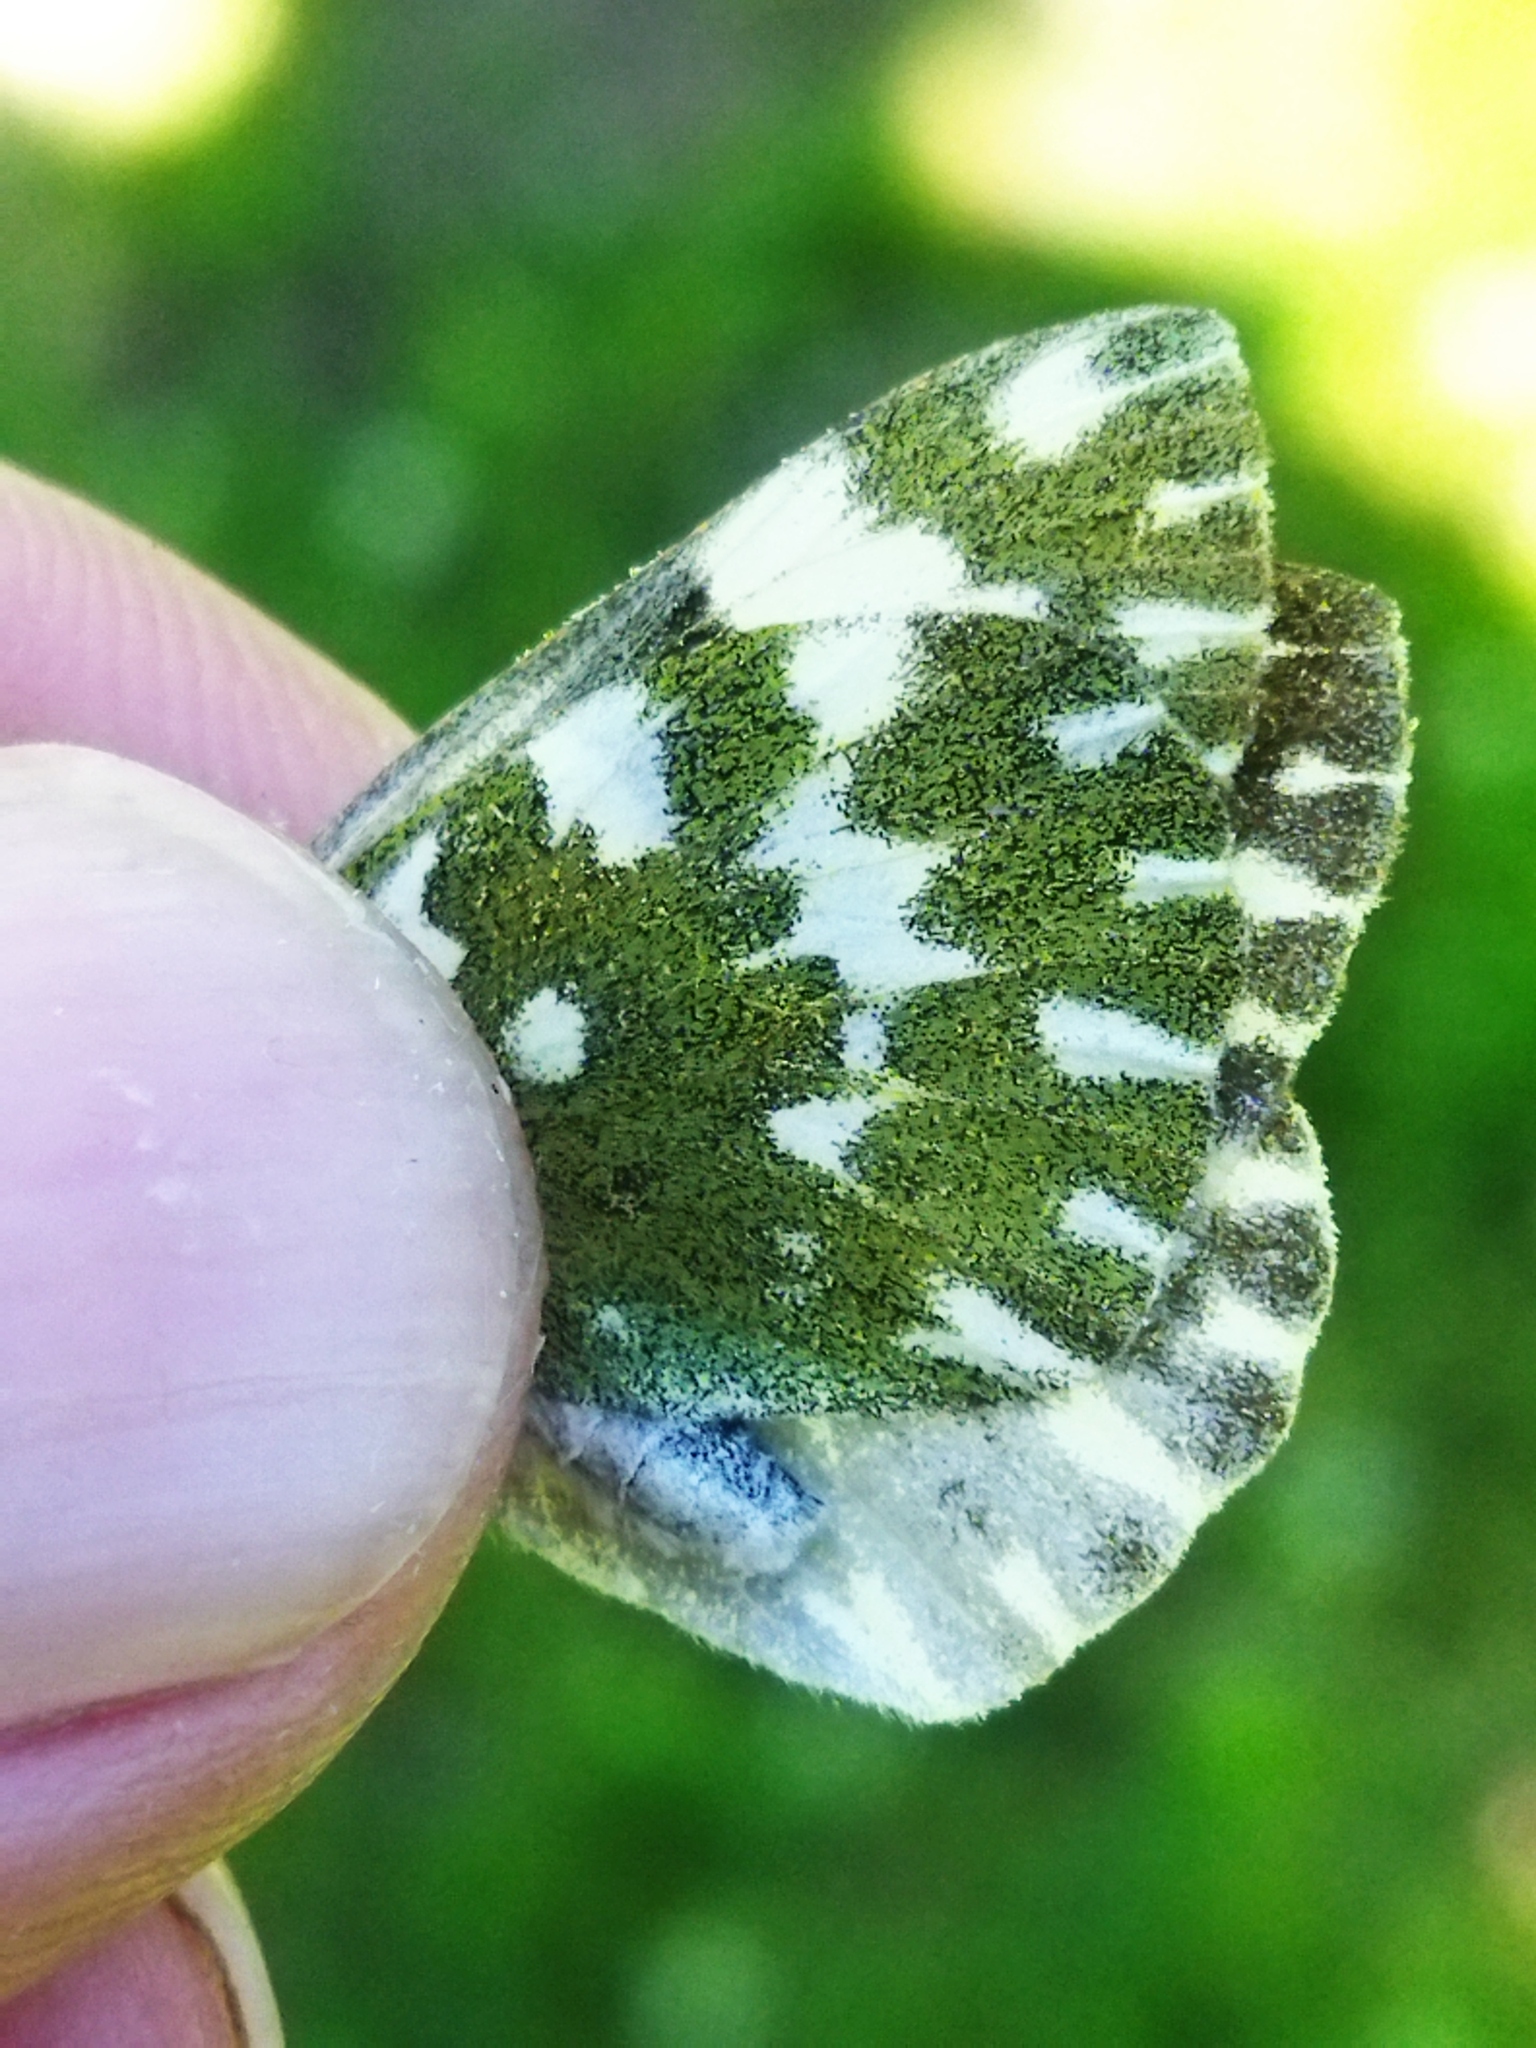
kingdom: Animalia
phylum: Arthropoda
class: Insecta
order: Lepidoptera
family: Pieridae
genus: Pontia
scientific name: Pontia edusa
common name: Eastern bath white
